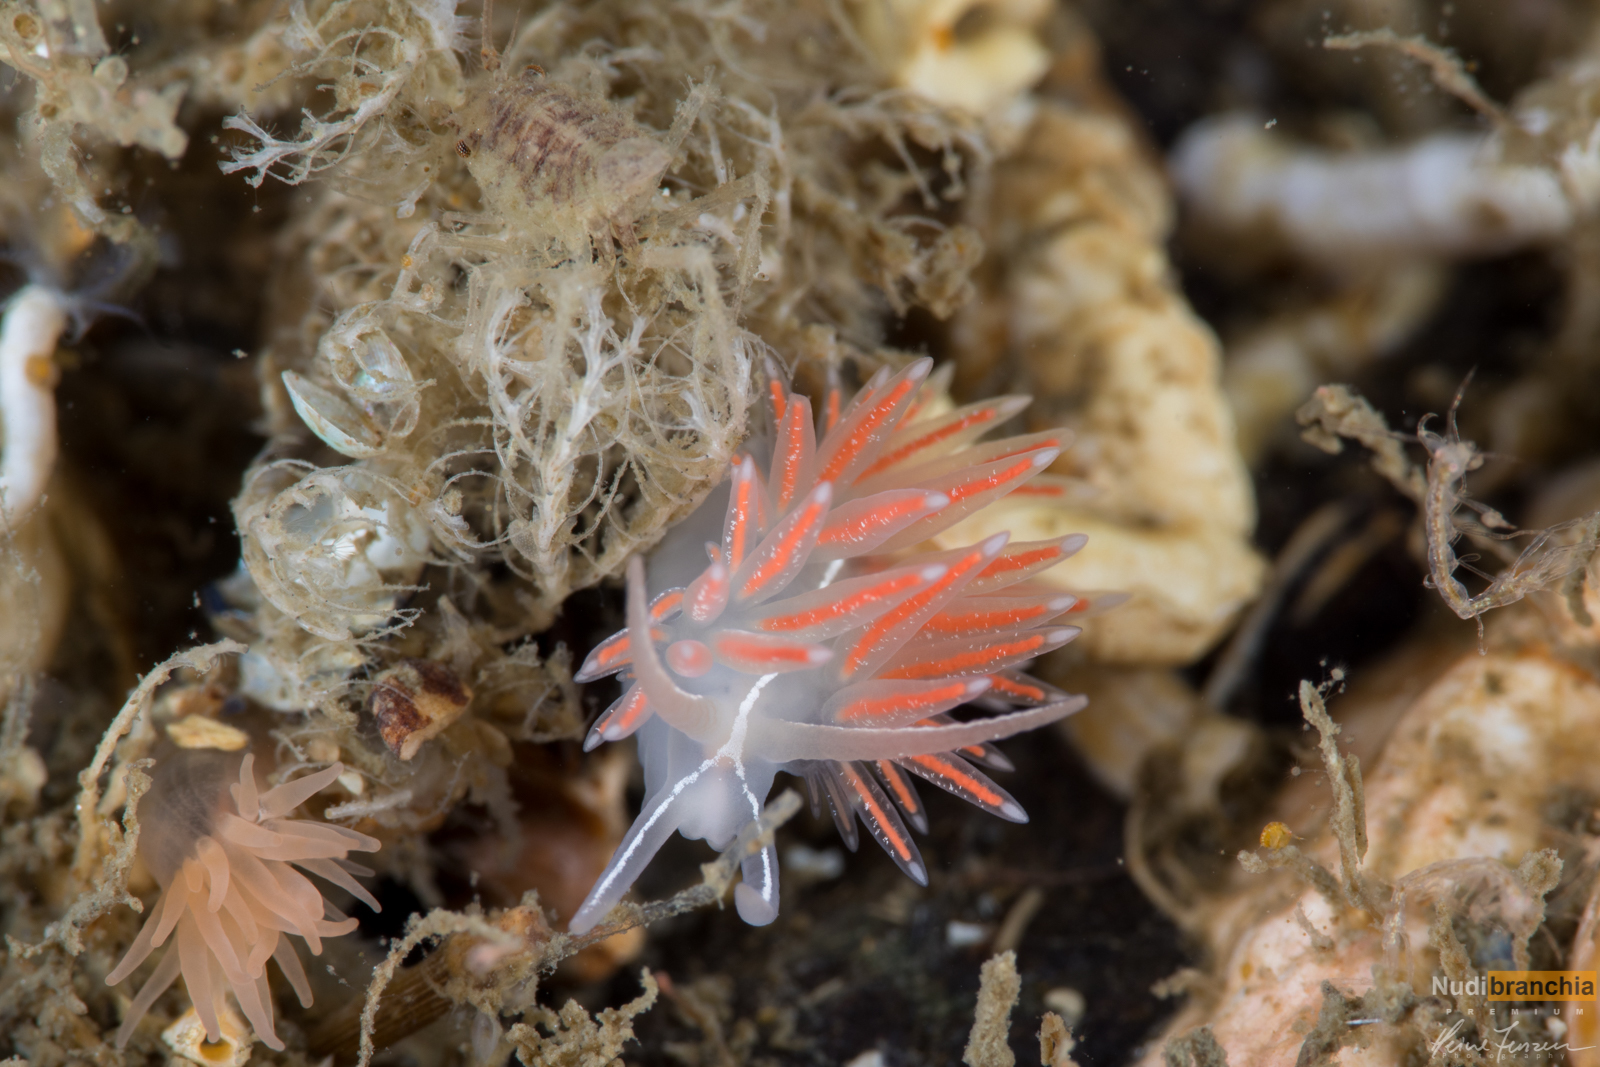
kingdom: Animalia
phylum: Mollusca
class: Gastropoda
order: Nudibranchia
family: Coryphellidae
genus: Coryphella
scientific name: Coryphella chriskaugei
